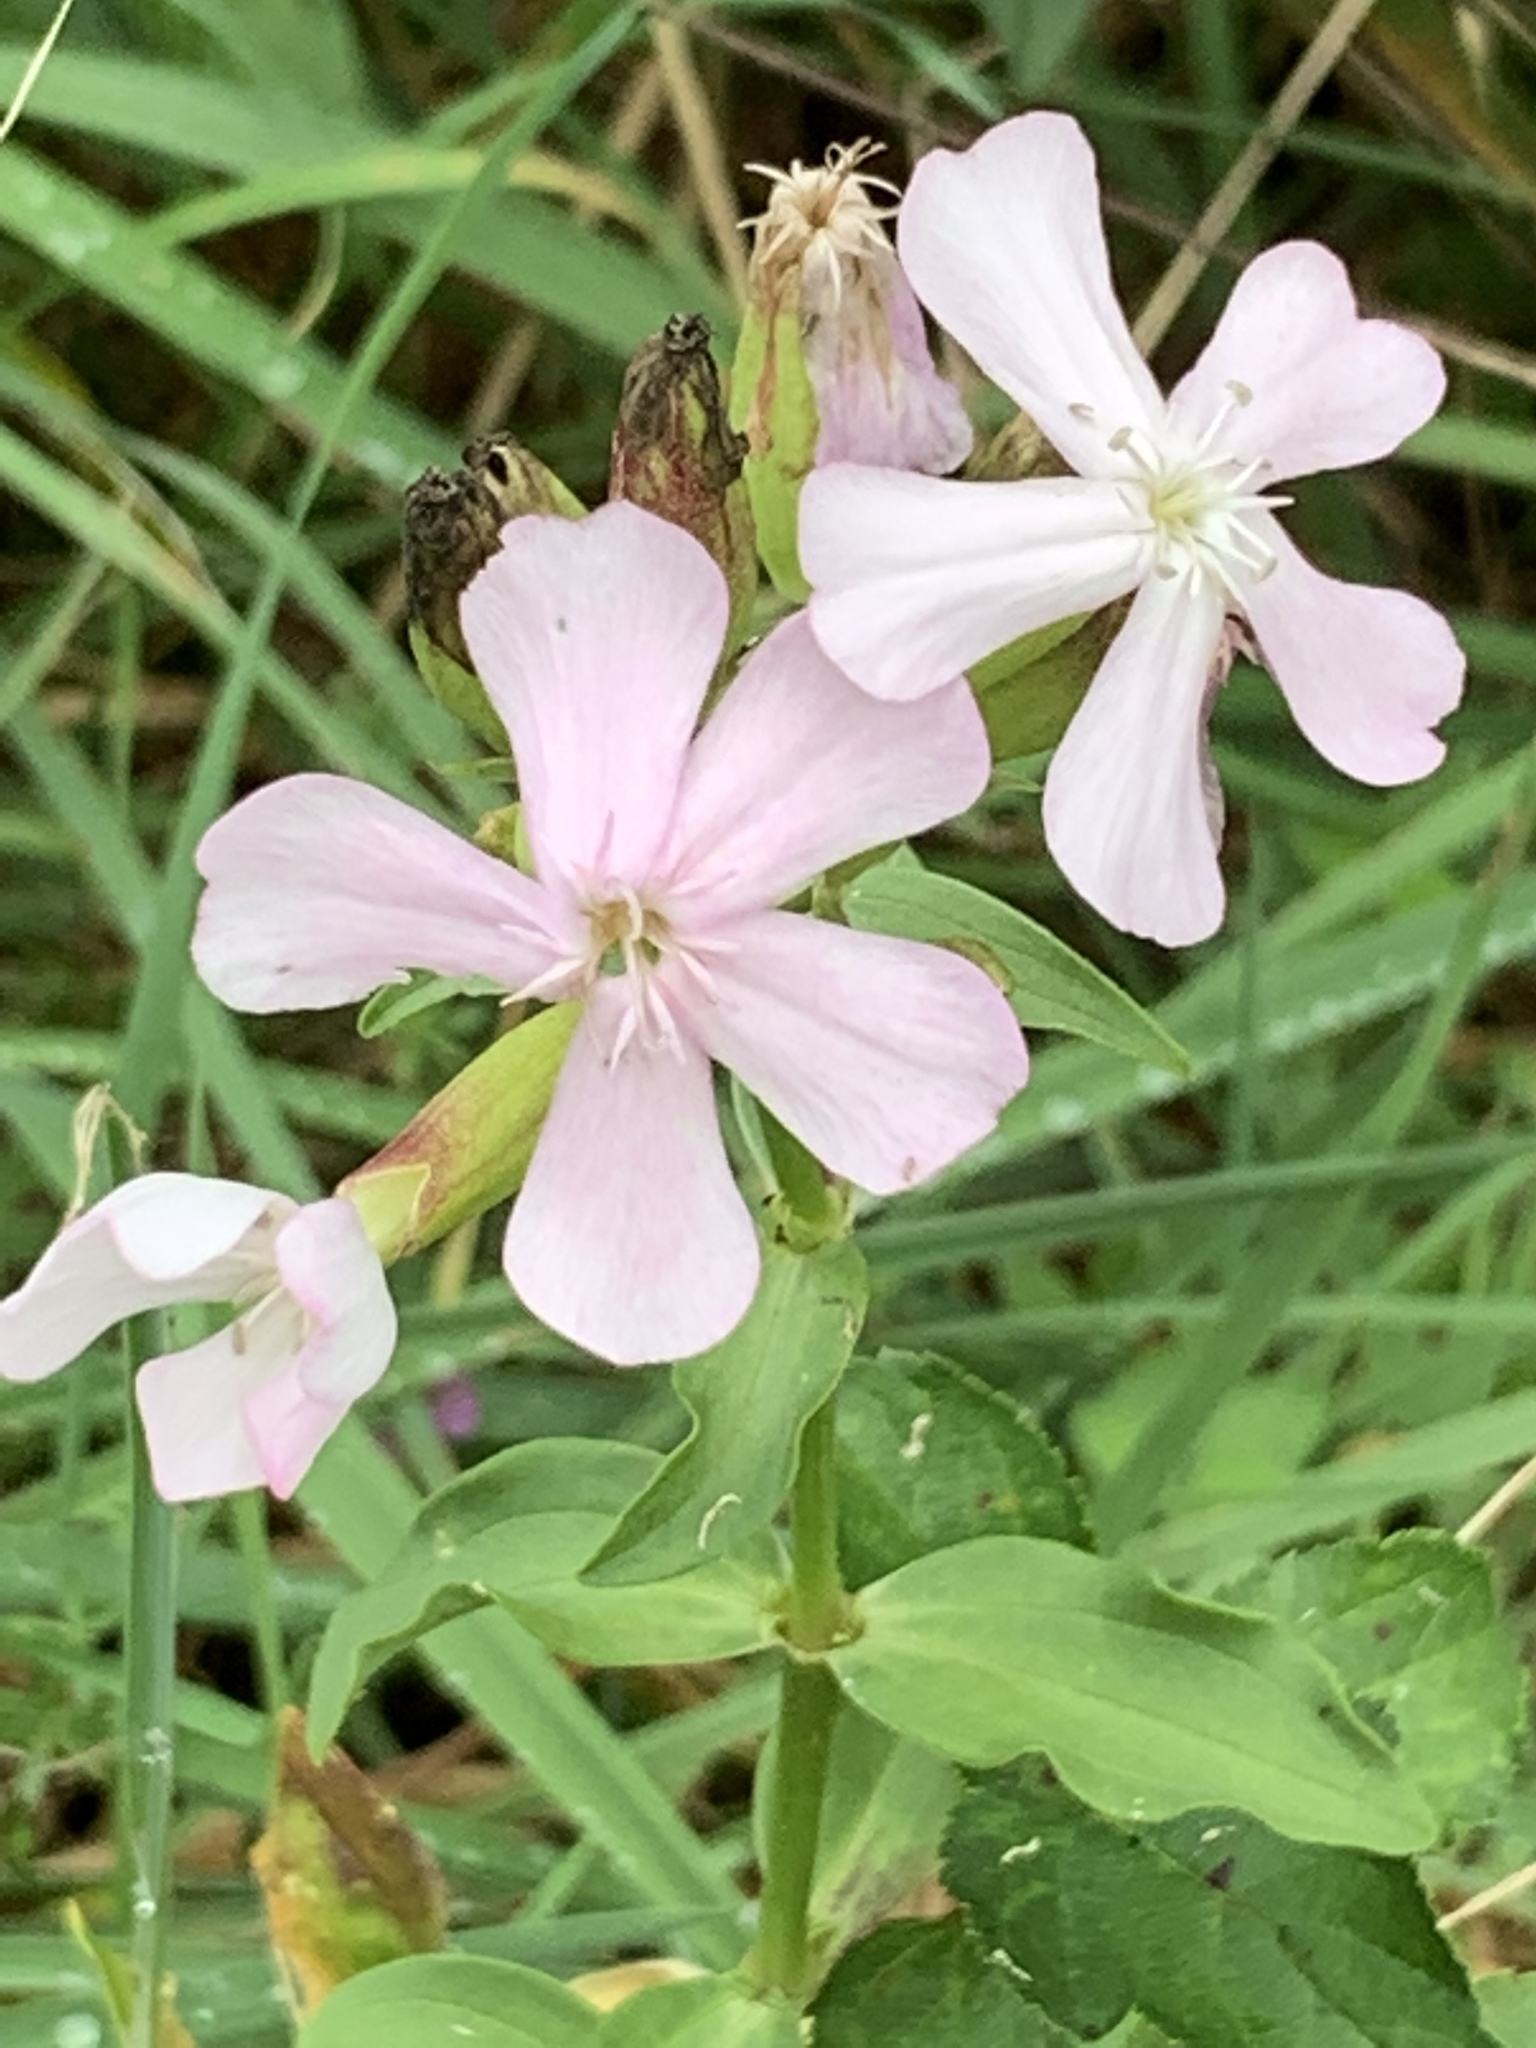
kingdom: Plantae
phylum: Tracheophyta
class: Magnoliopsida
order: Caryophyllales
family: Caryophyllaceae
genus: Saponaria
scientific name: Saponaria officinalis
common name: Soapwort
